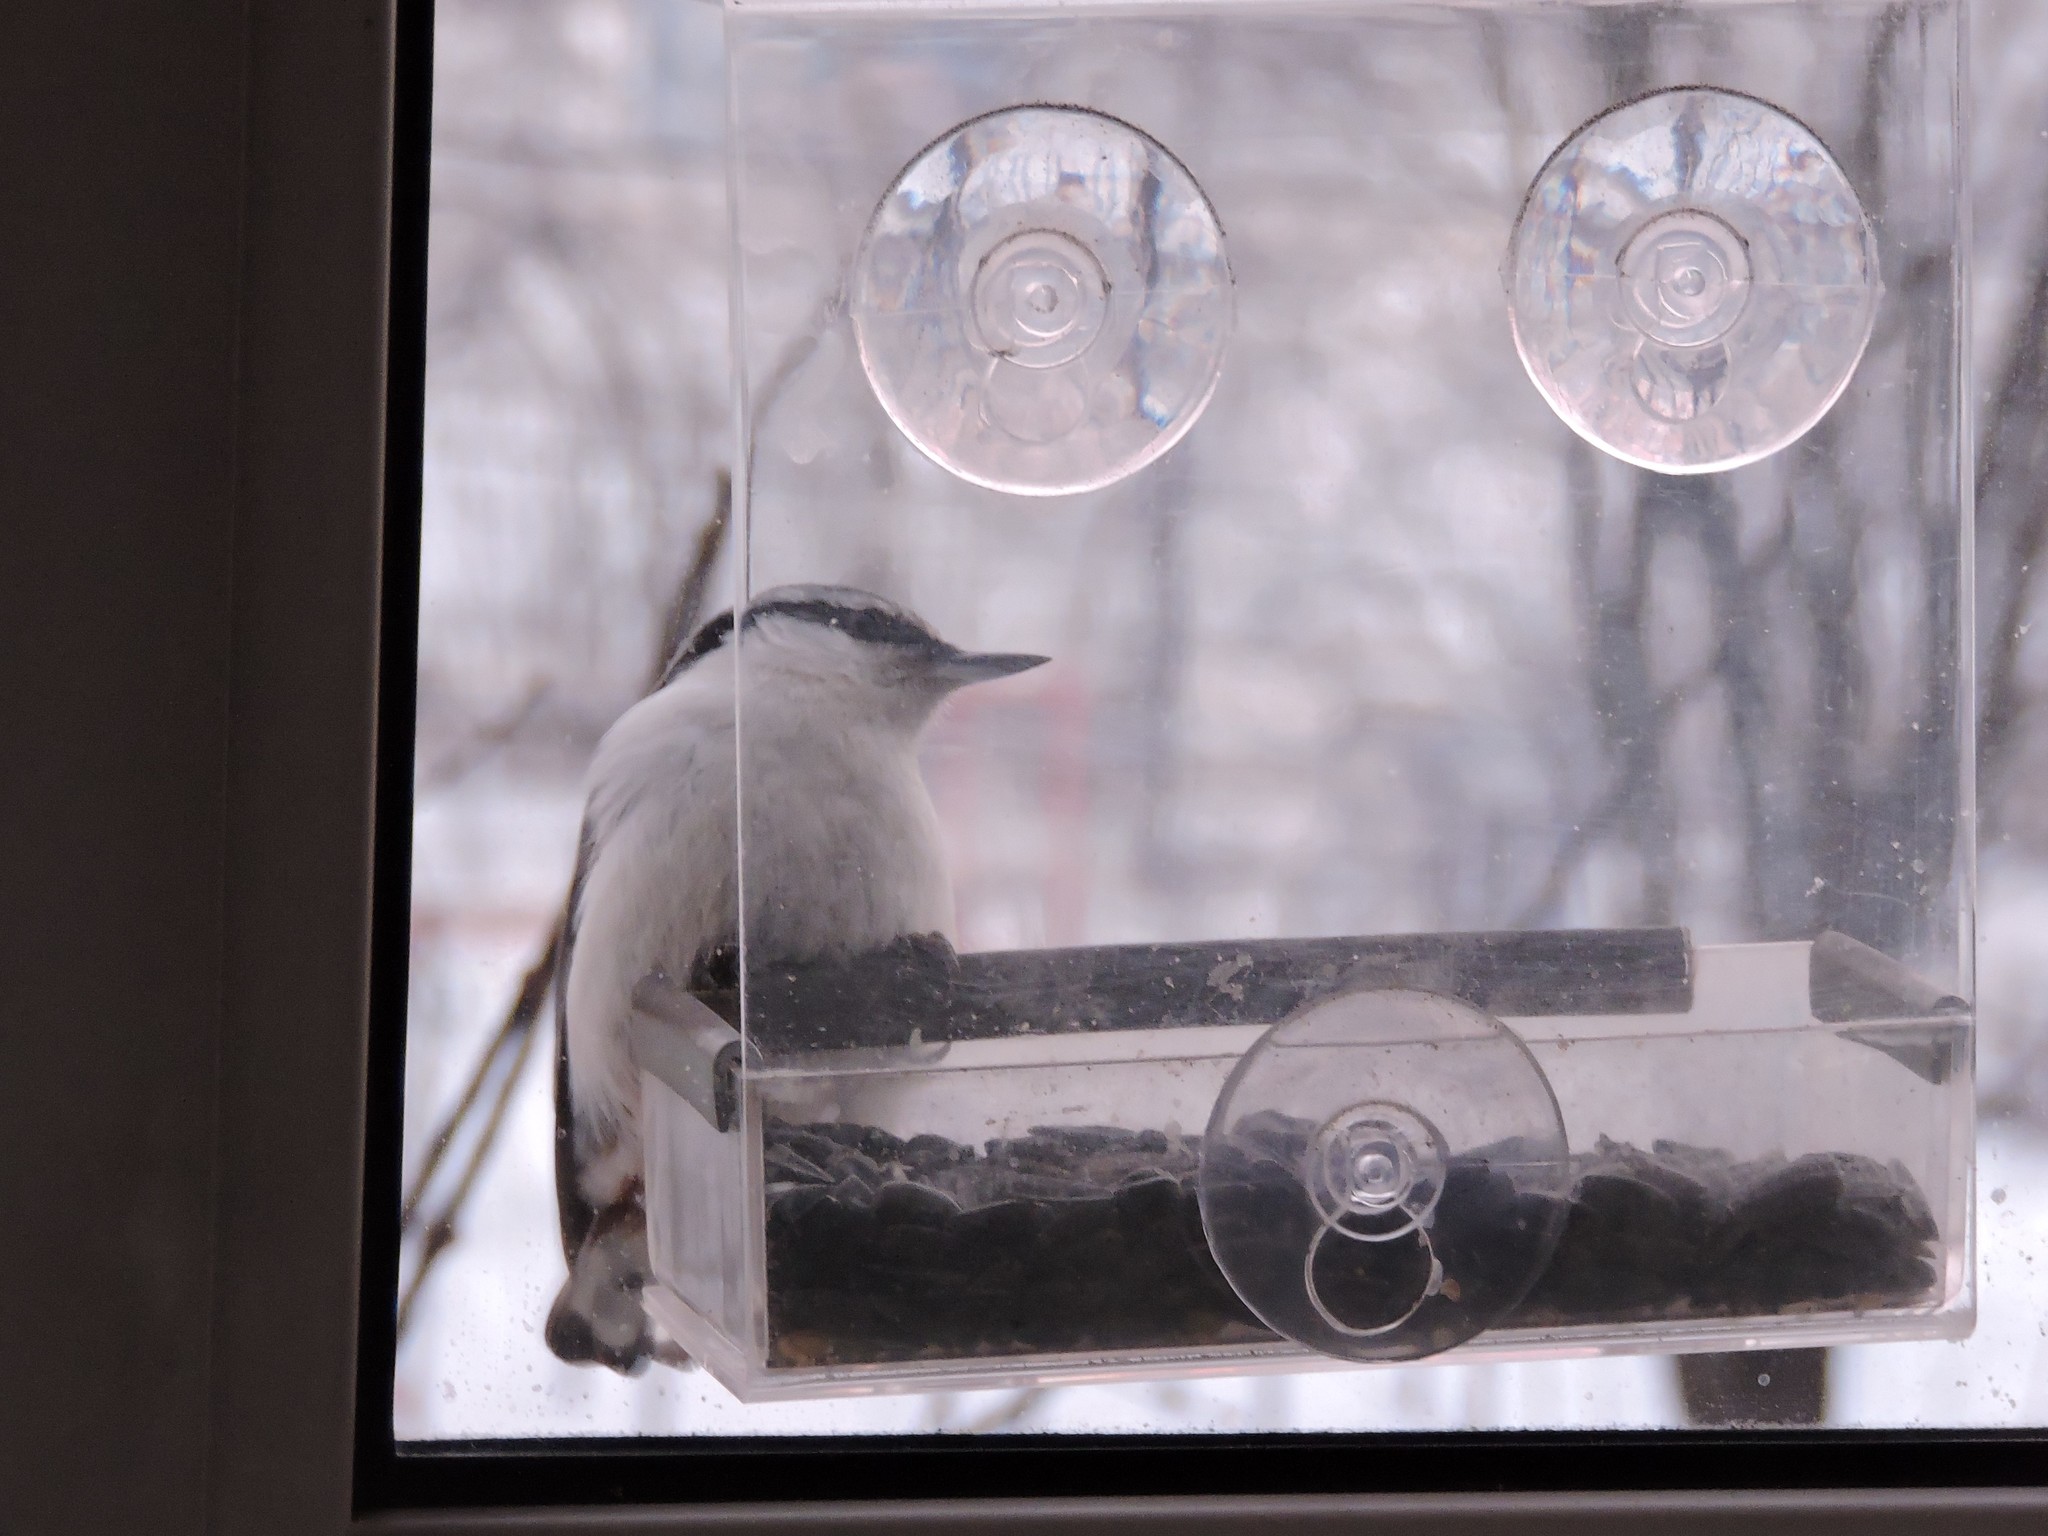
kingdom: Animalia
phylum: Chordata
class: Aves
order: Passeriformes
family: Sittidae
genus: Sitta
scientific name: Sitta europaea
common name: Eurasian nuthatch
